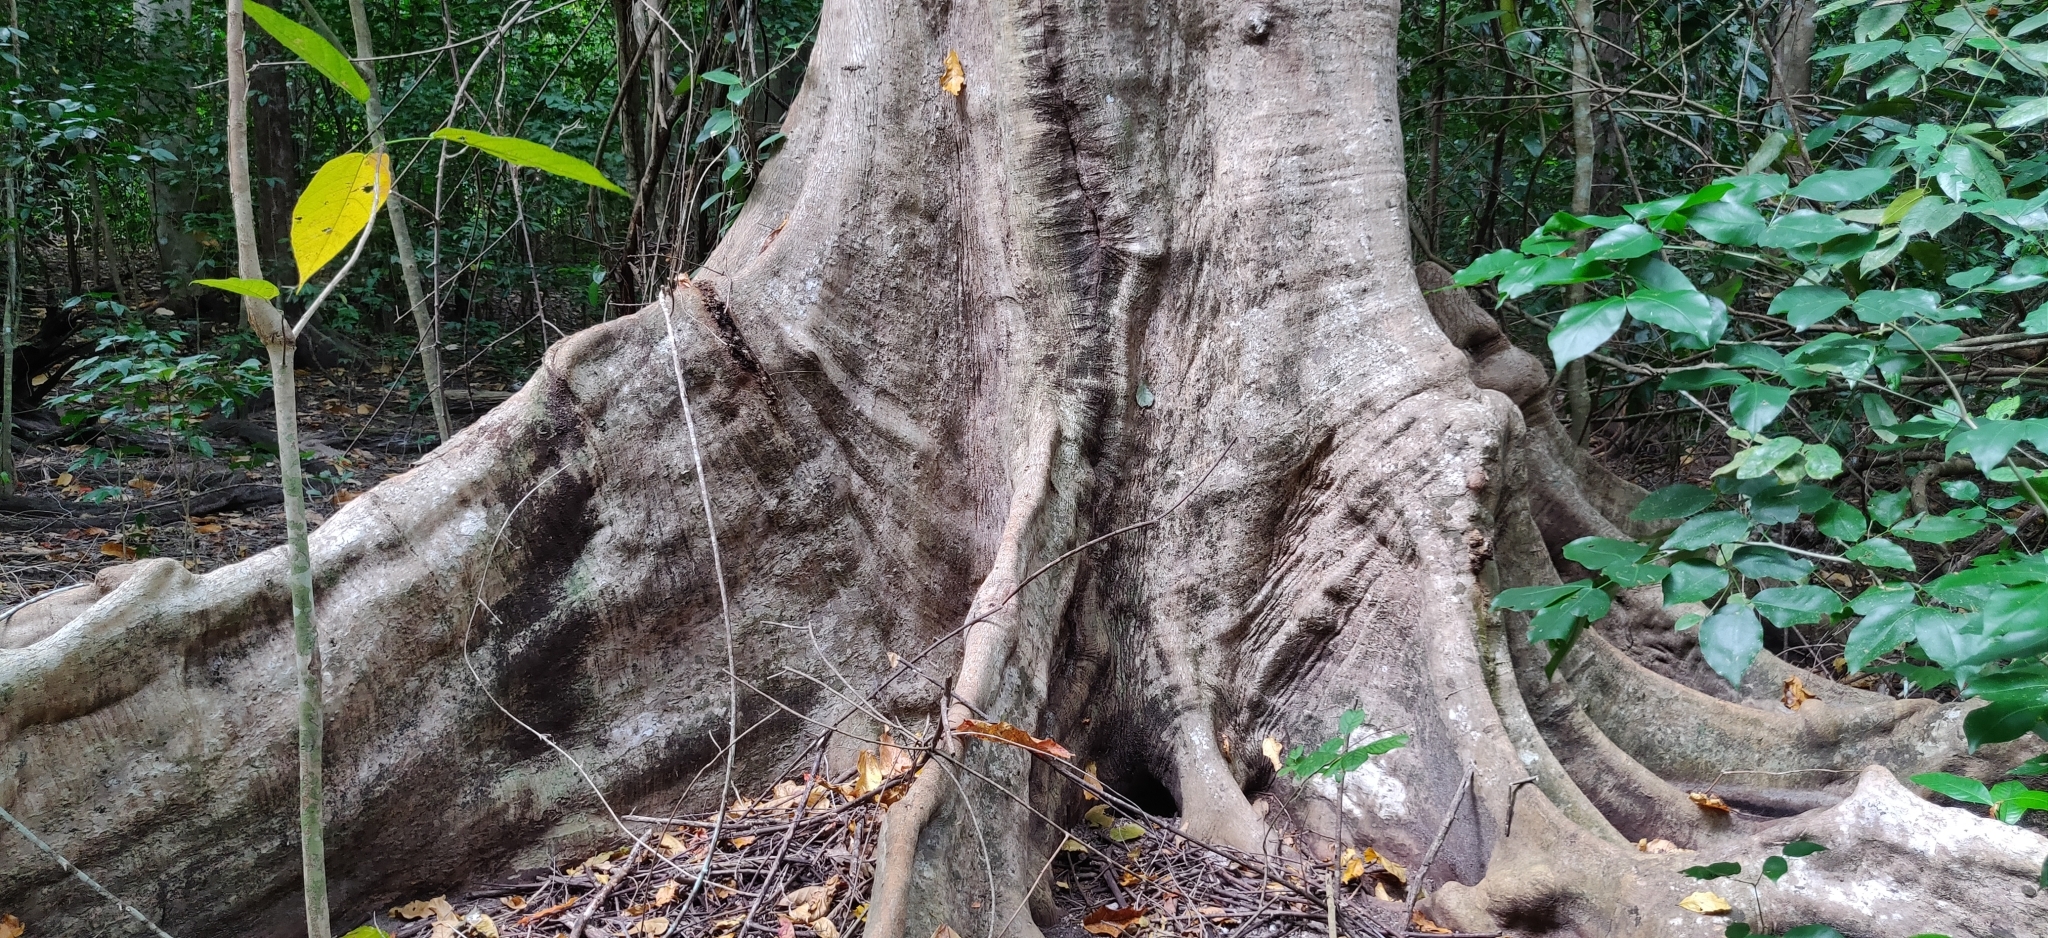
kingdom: Plantae
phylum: Tracheophyta
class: Magnoliopsida
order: Myrtales
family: Combretaceae
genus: Terminalia
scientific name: Terminalia citrina
